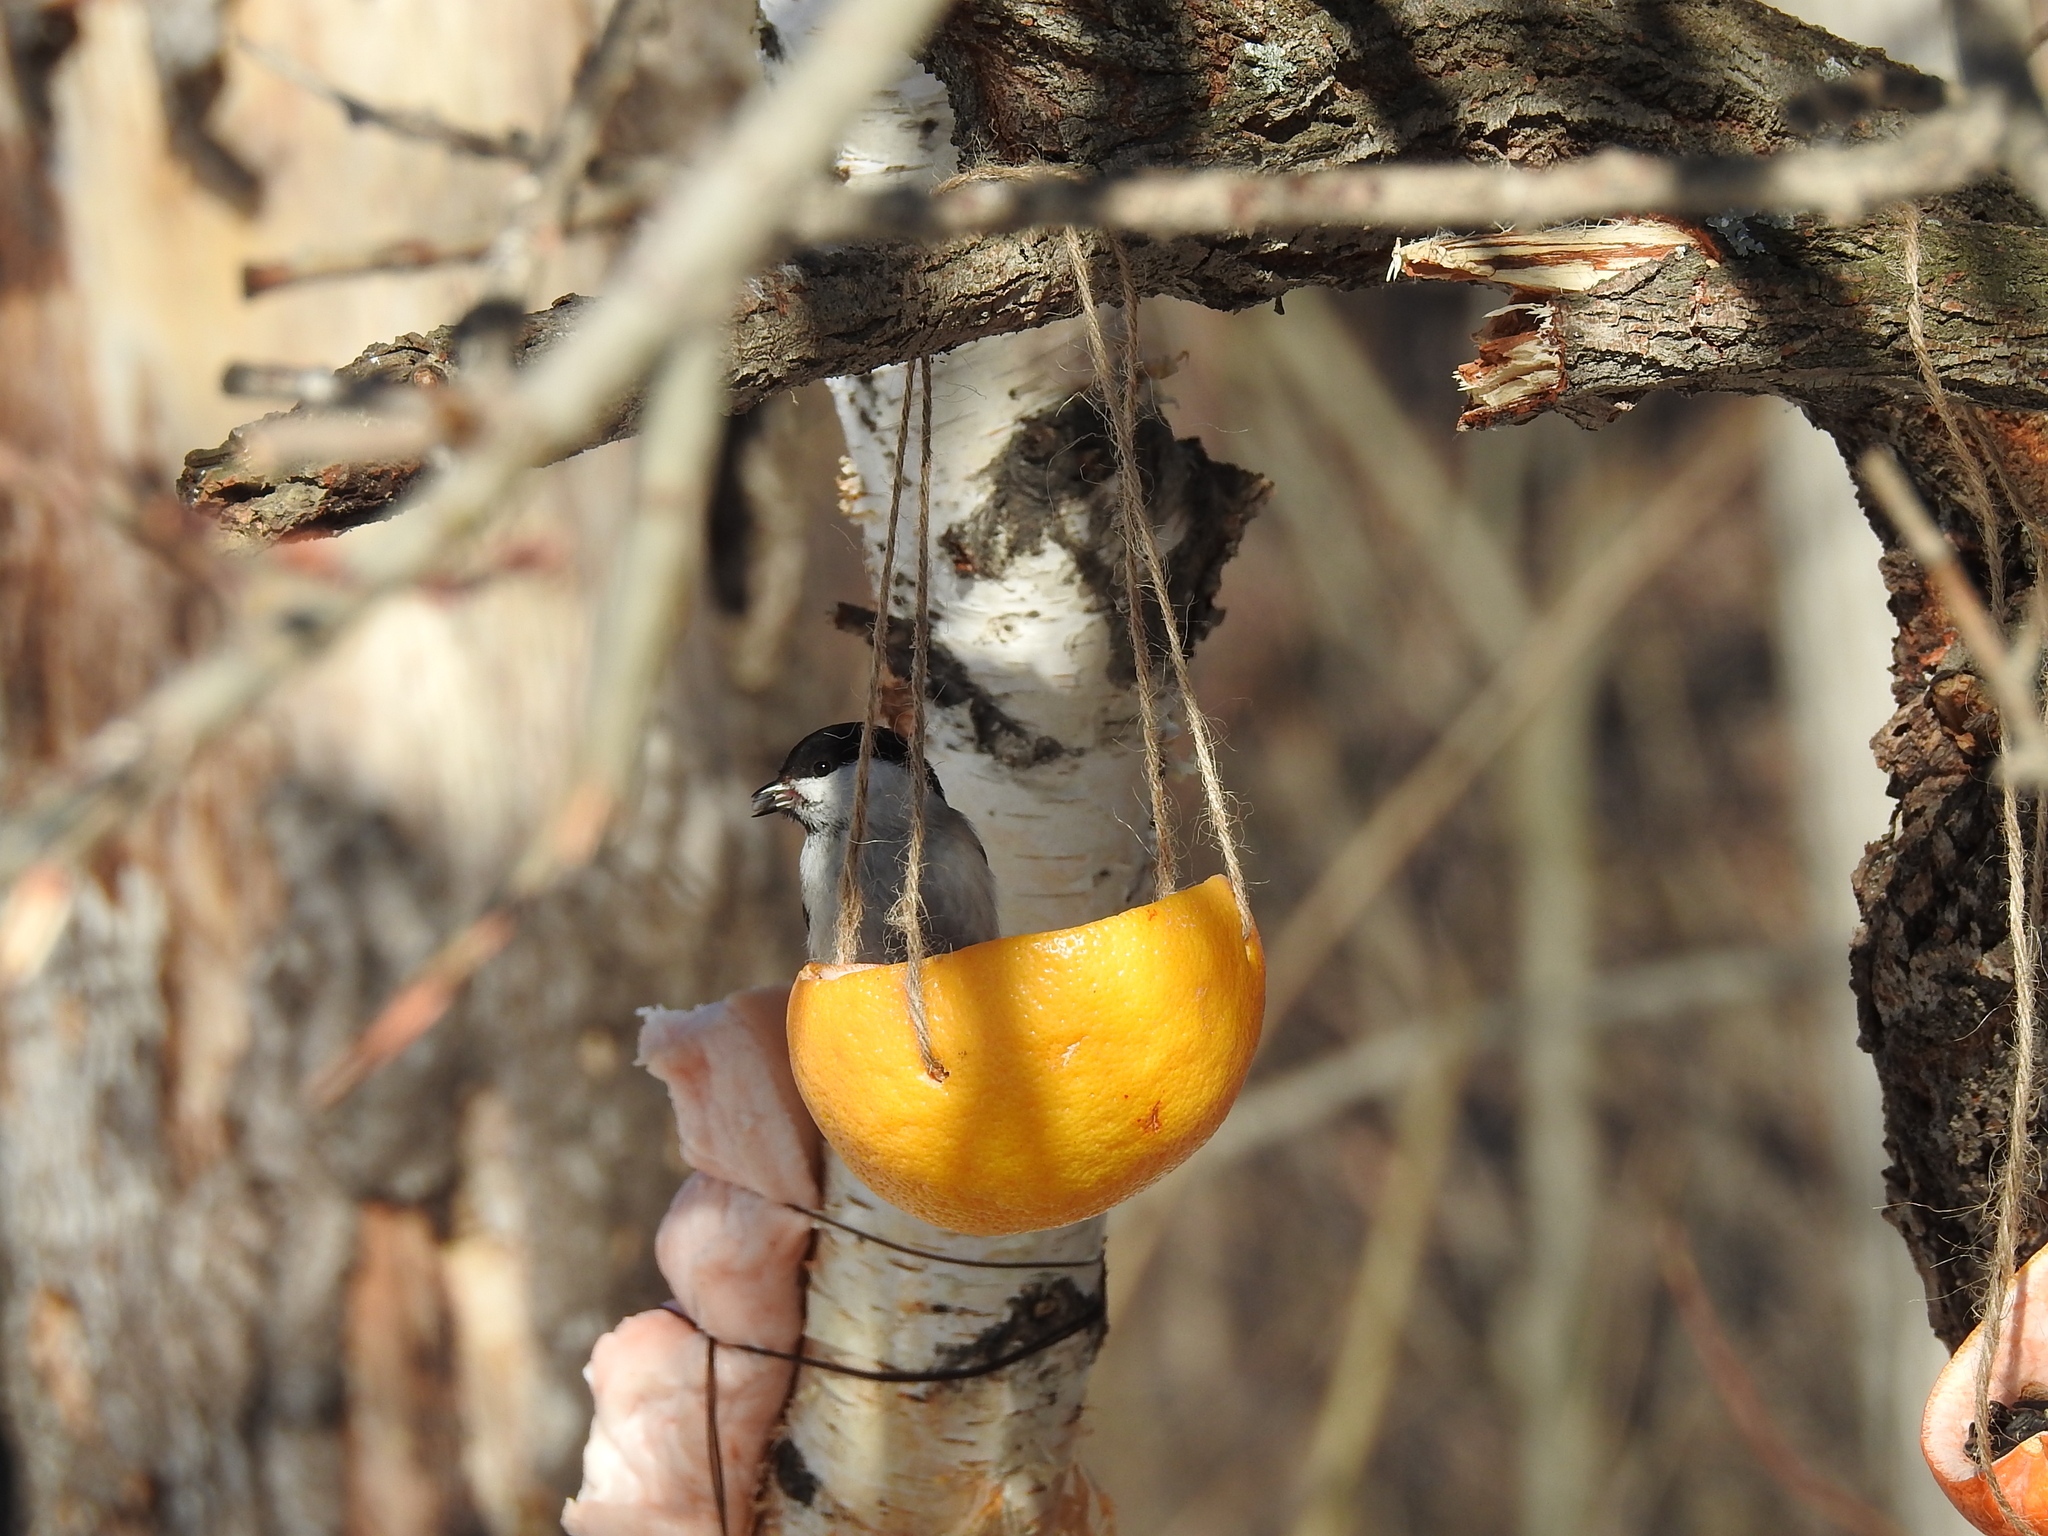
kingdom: Animalia
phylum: Chordata
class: Aves
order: Passeriformes
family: Paridae
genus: Poecile
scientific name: Poecile montanus
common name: Willow tit
